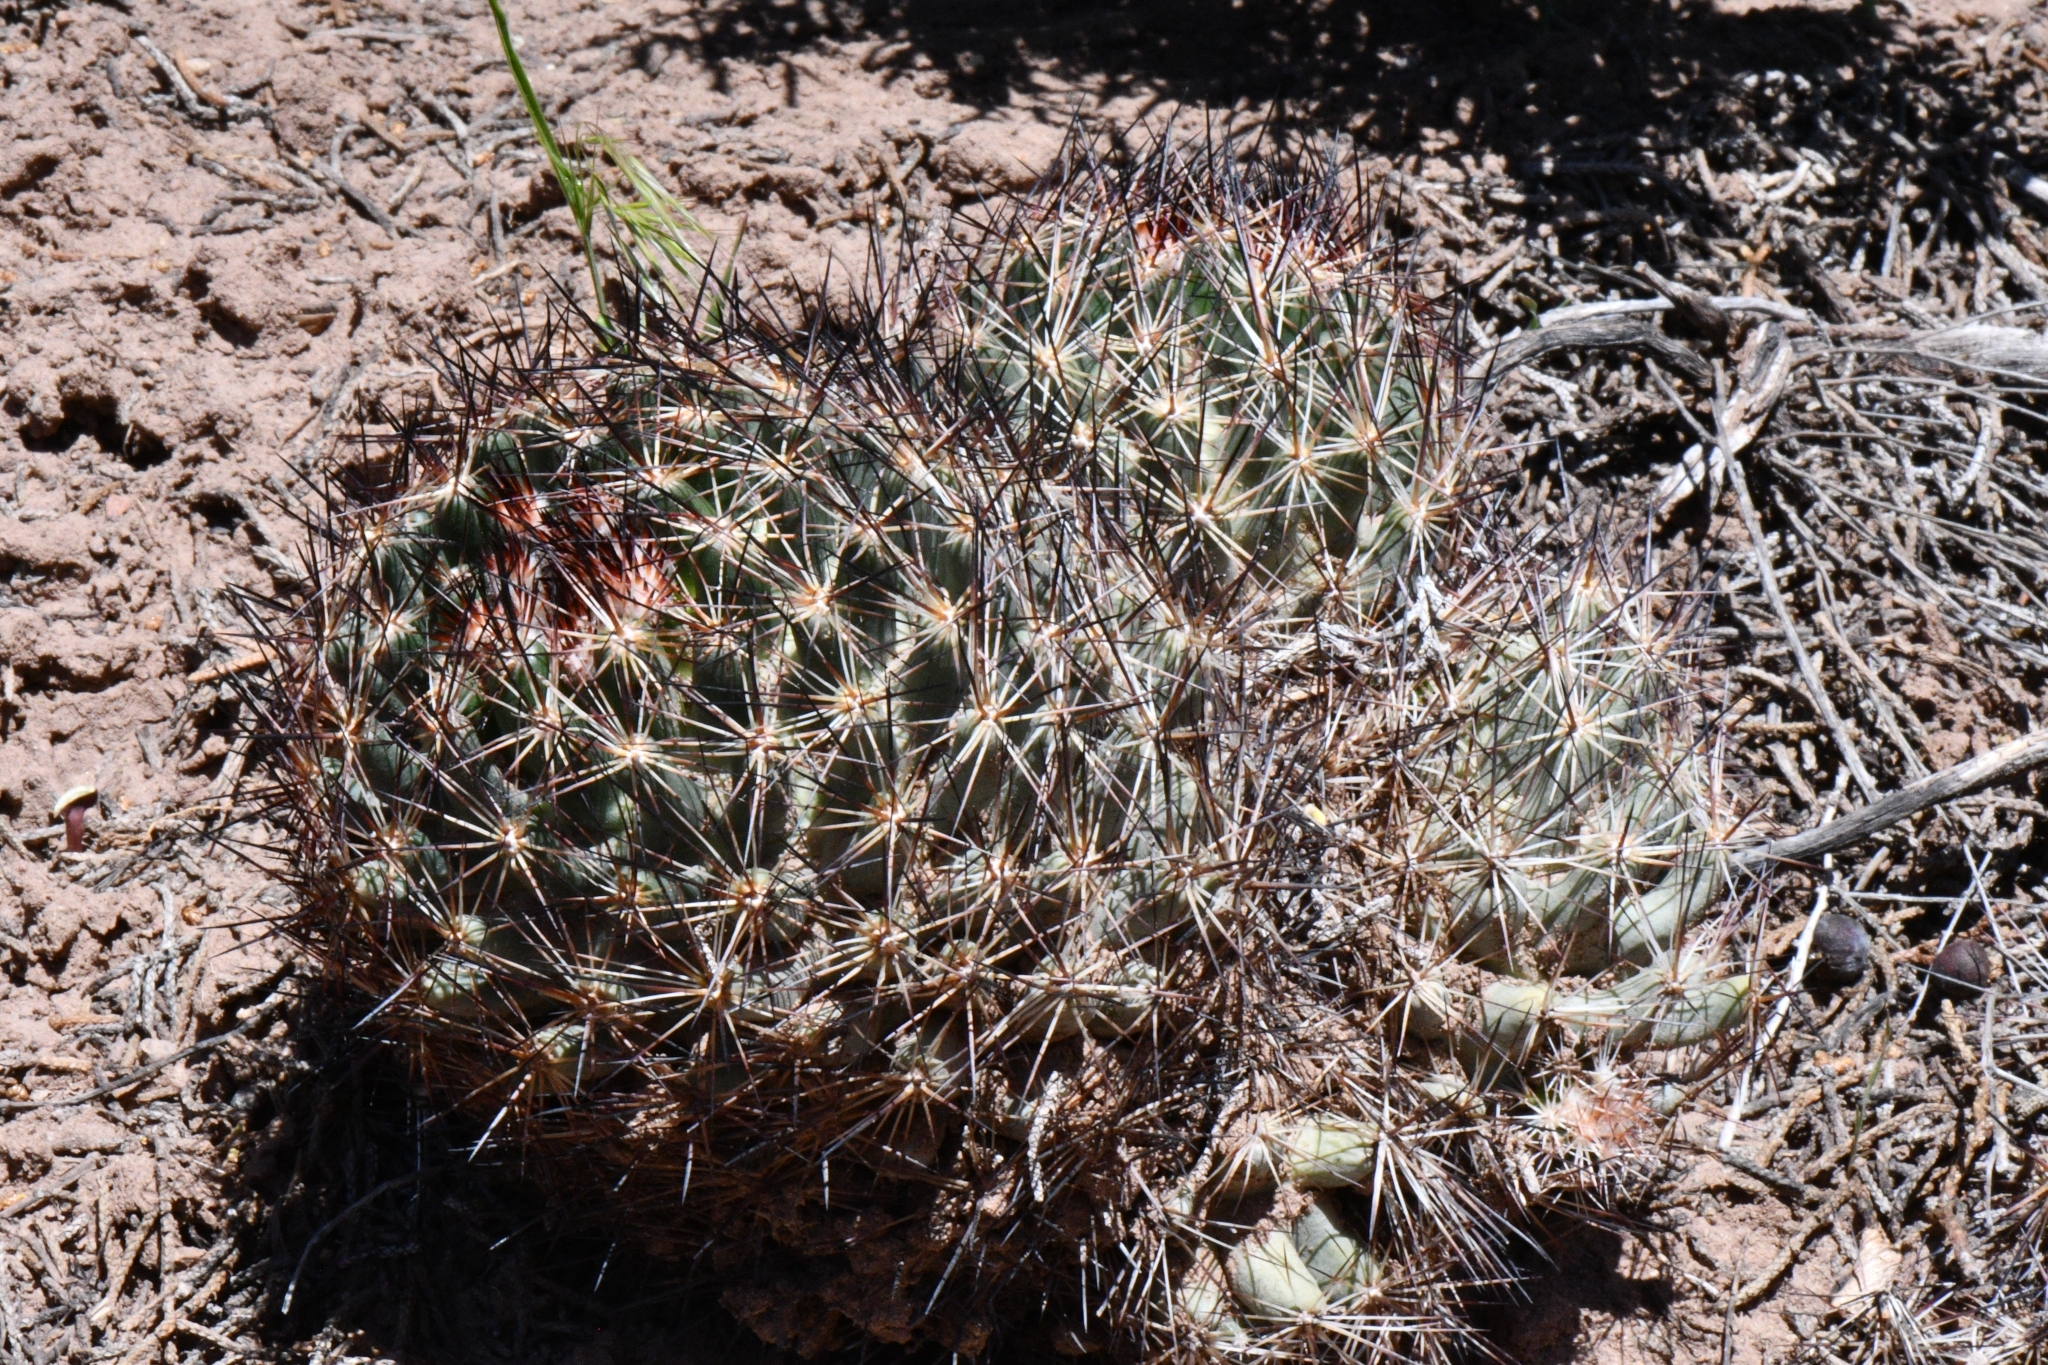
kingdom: Plantae
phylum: Tracheophyta
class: Magnoliopsida
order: Caryophyllales
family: Cactaceae
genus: Pelecyphora
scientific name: Pelecyphora vivipara
